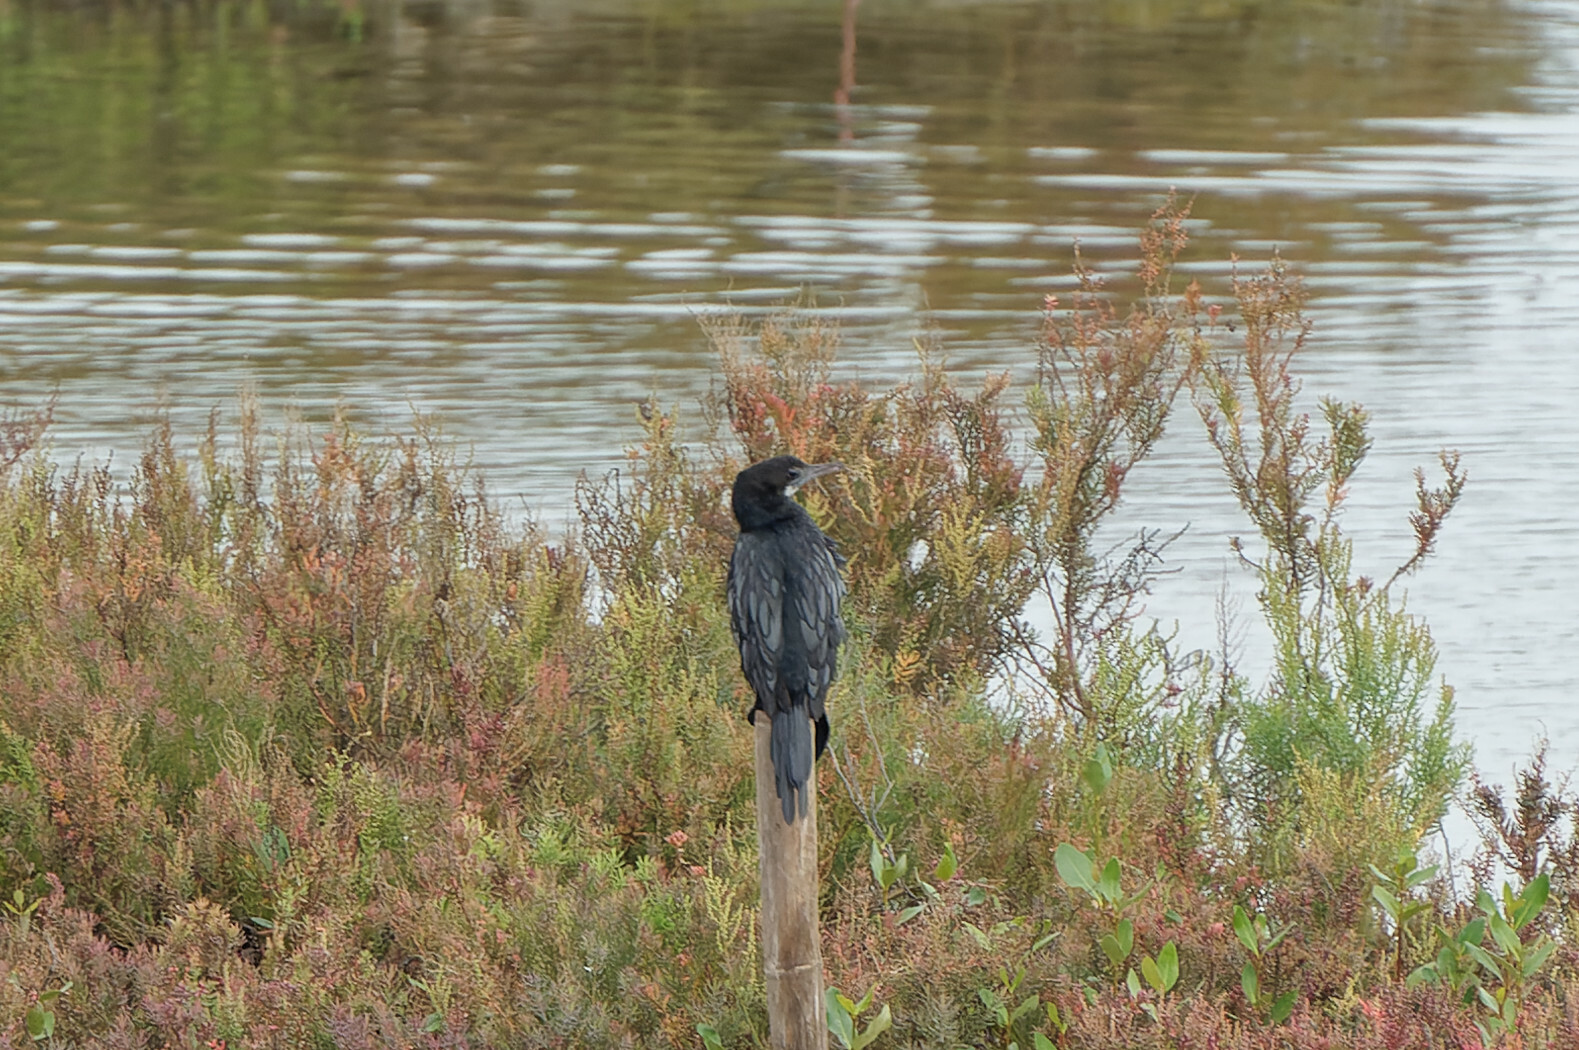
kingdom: Animalia
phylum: Chordata
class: Aves
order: Suliformes
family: Phalacrocoracidae
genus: Microcarbo
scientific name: Microcarbo niger
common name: Little cormorant
